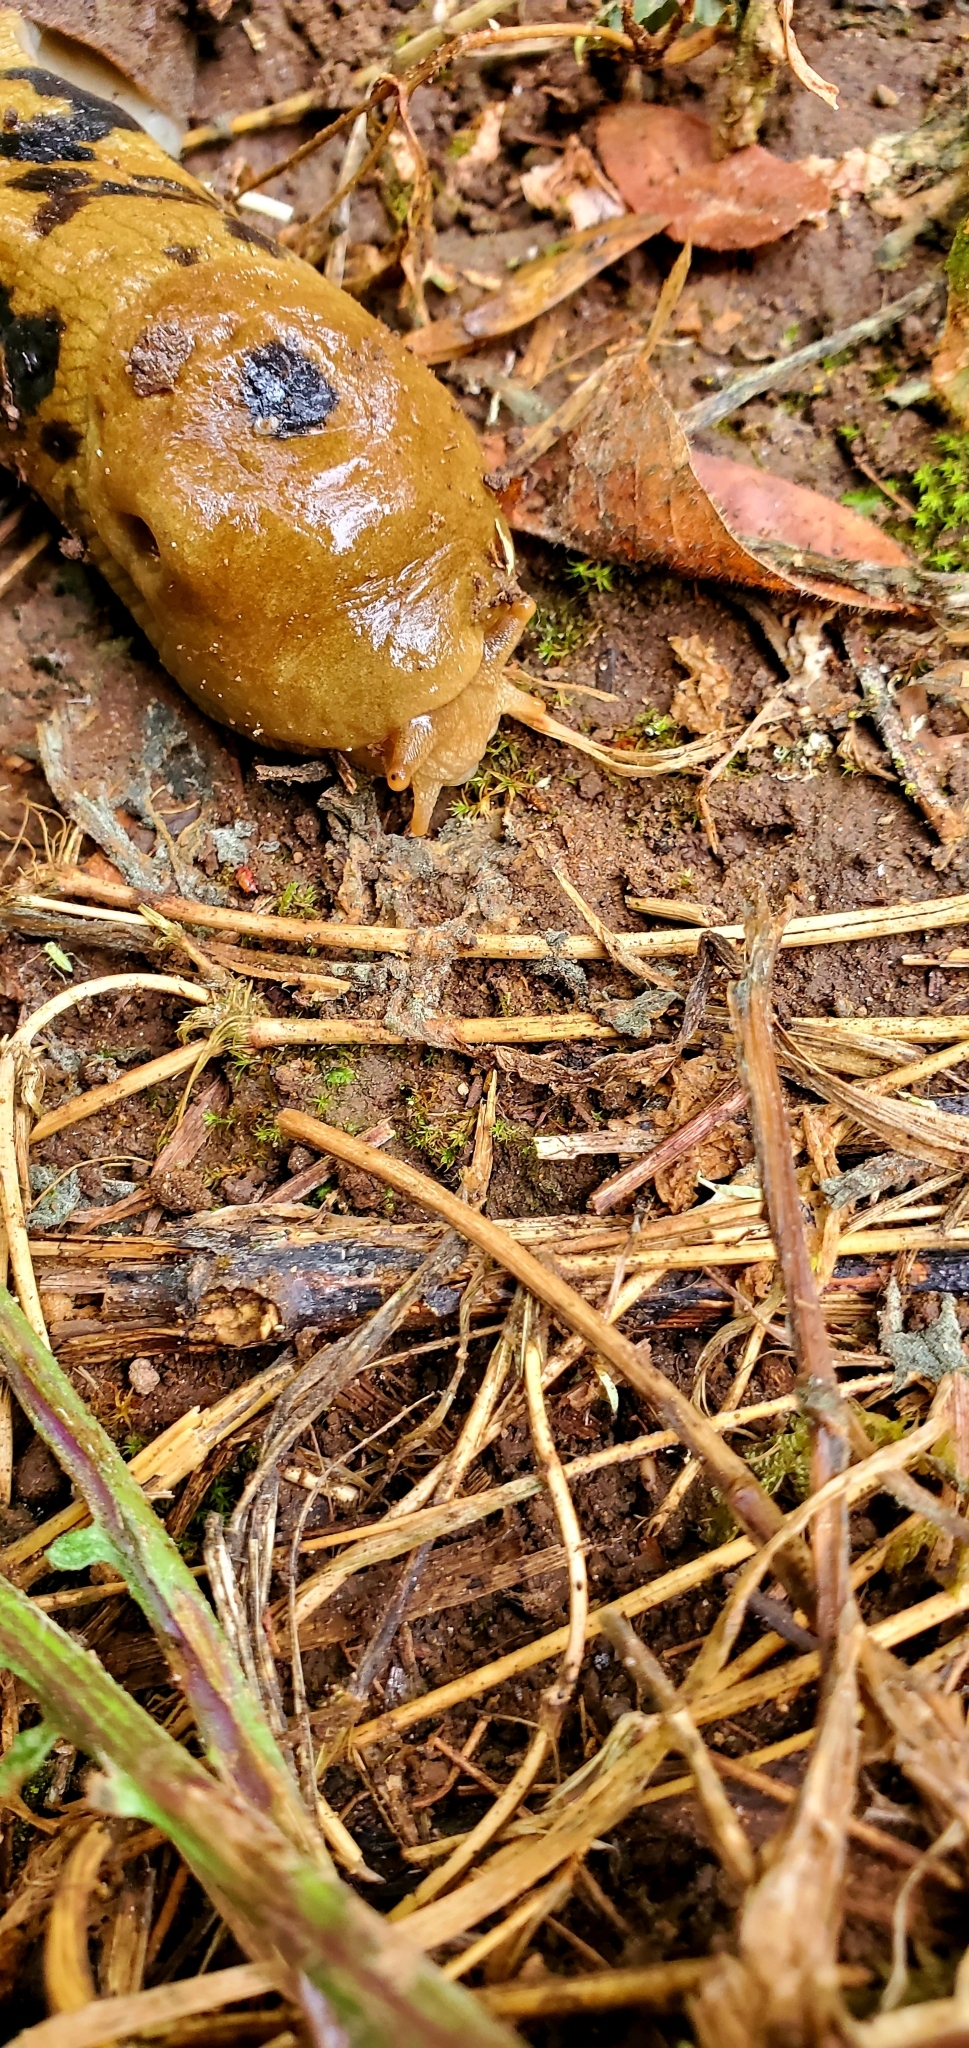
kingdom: Animalia
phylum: Mollusca
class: Gastropoda
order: Stylommatophora
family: Ariolimacidae
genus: Ariolimax
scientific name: Ariolimax columbianus
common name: Pacific banana slug
